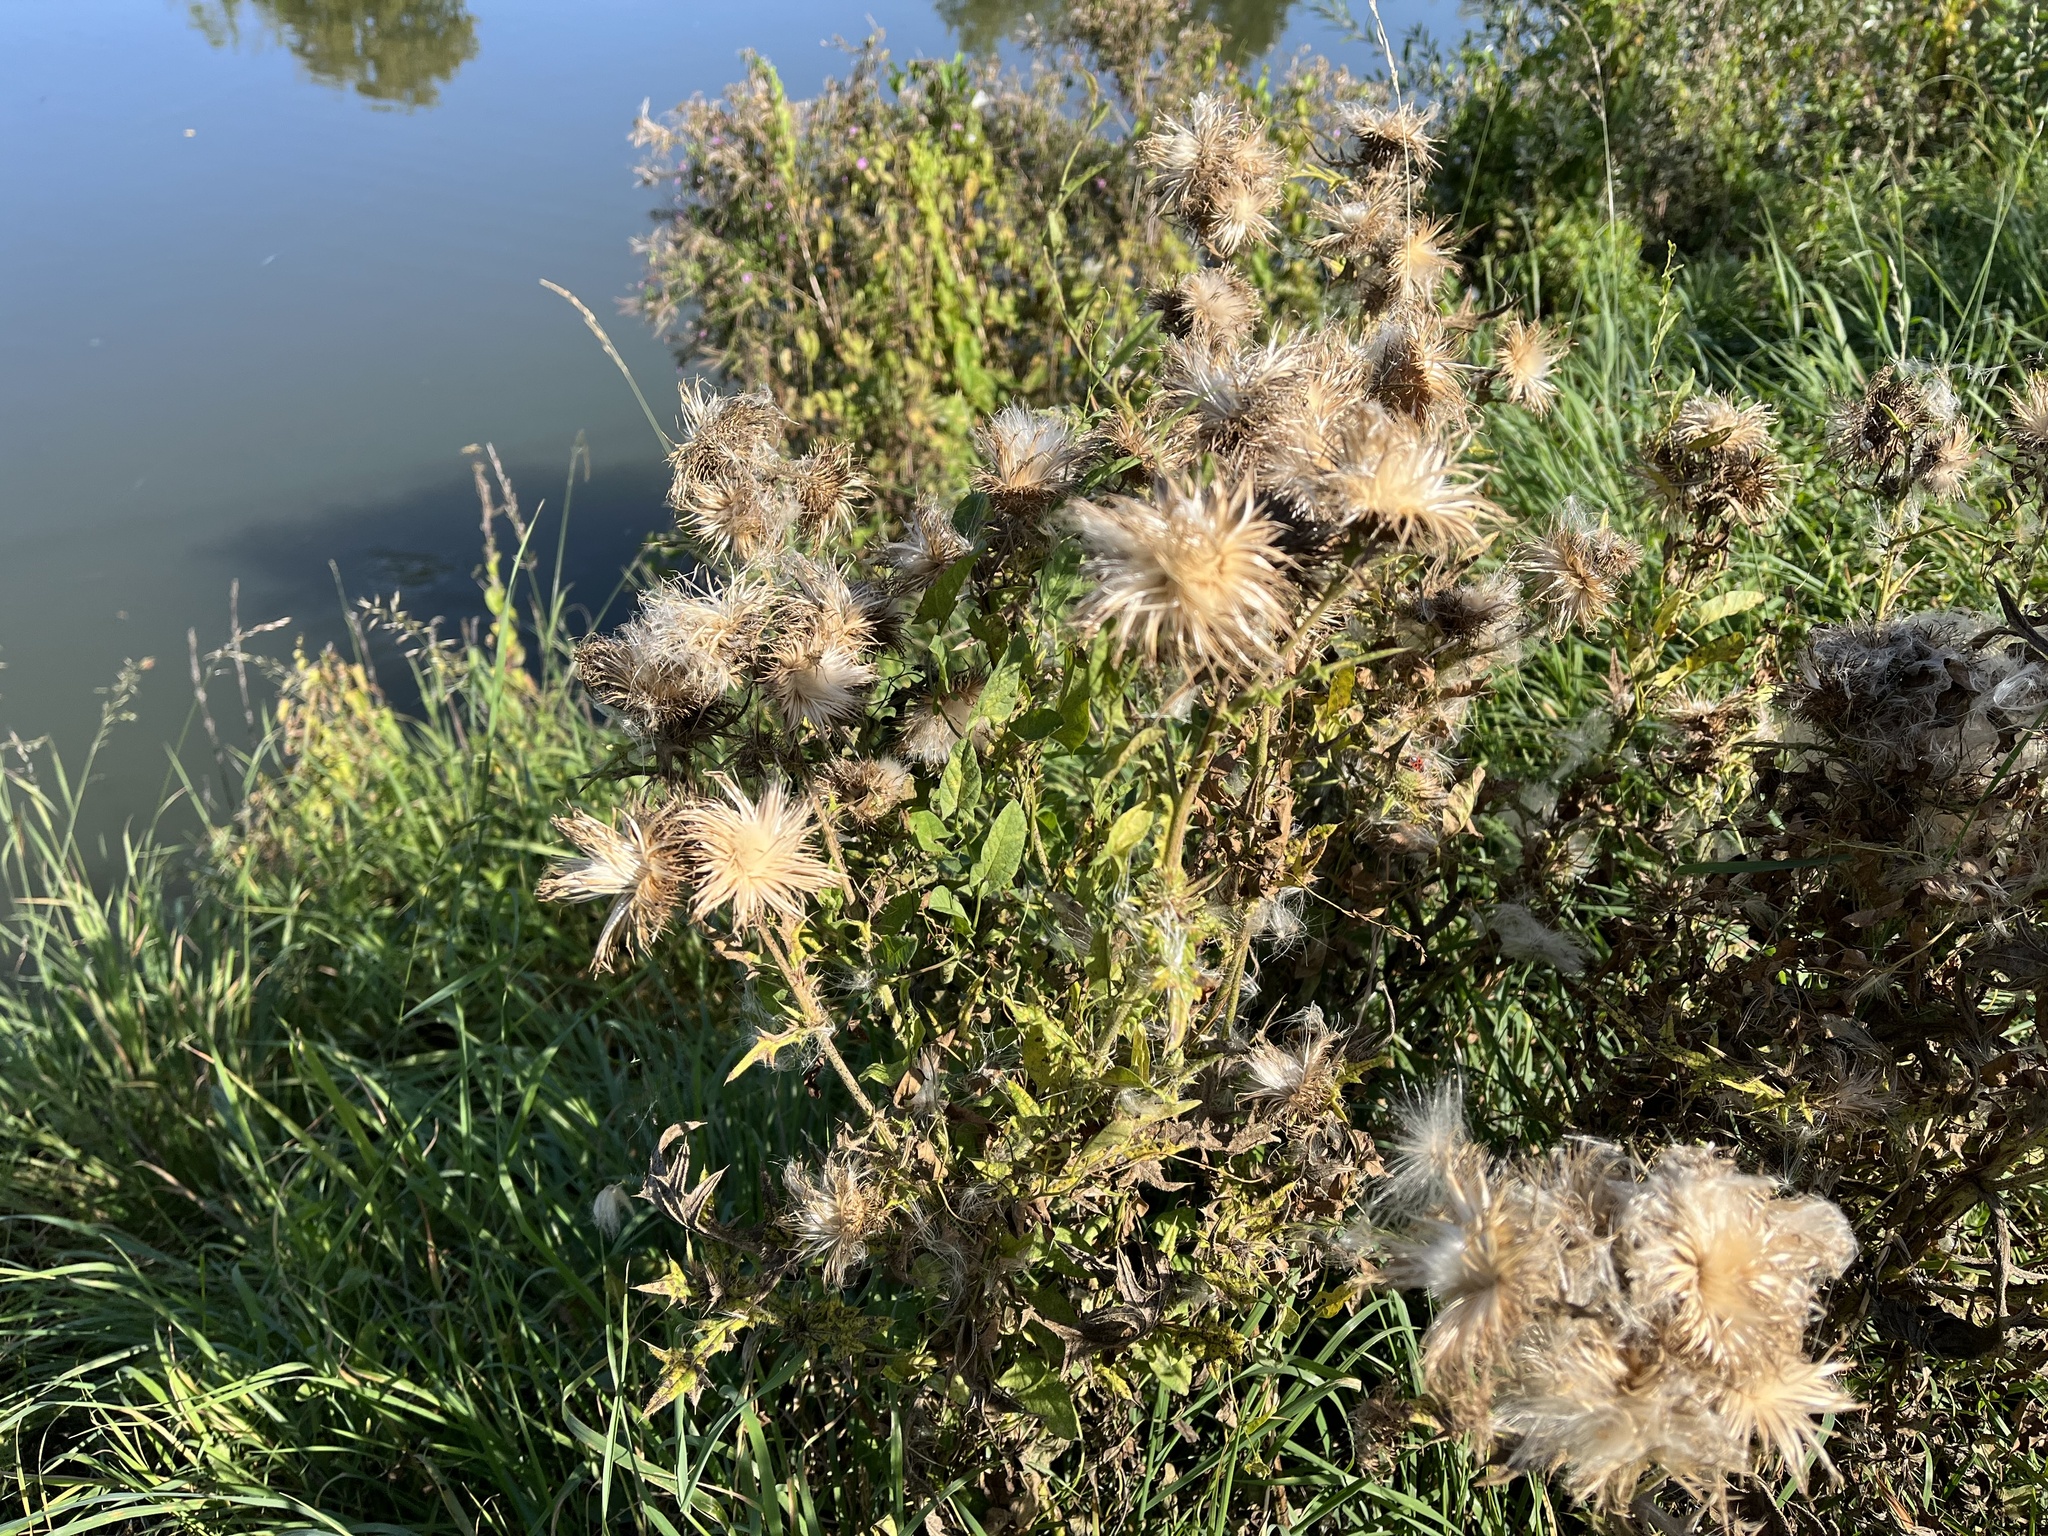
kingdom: Plantae
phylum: Tracheophyta
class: Magnoliopsida
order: Asterales
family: Asteraceae
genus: Cirsium
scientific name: Cirsium vulgare
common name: Bull thistle
